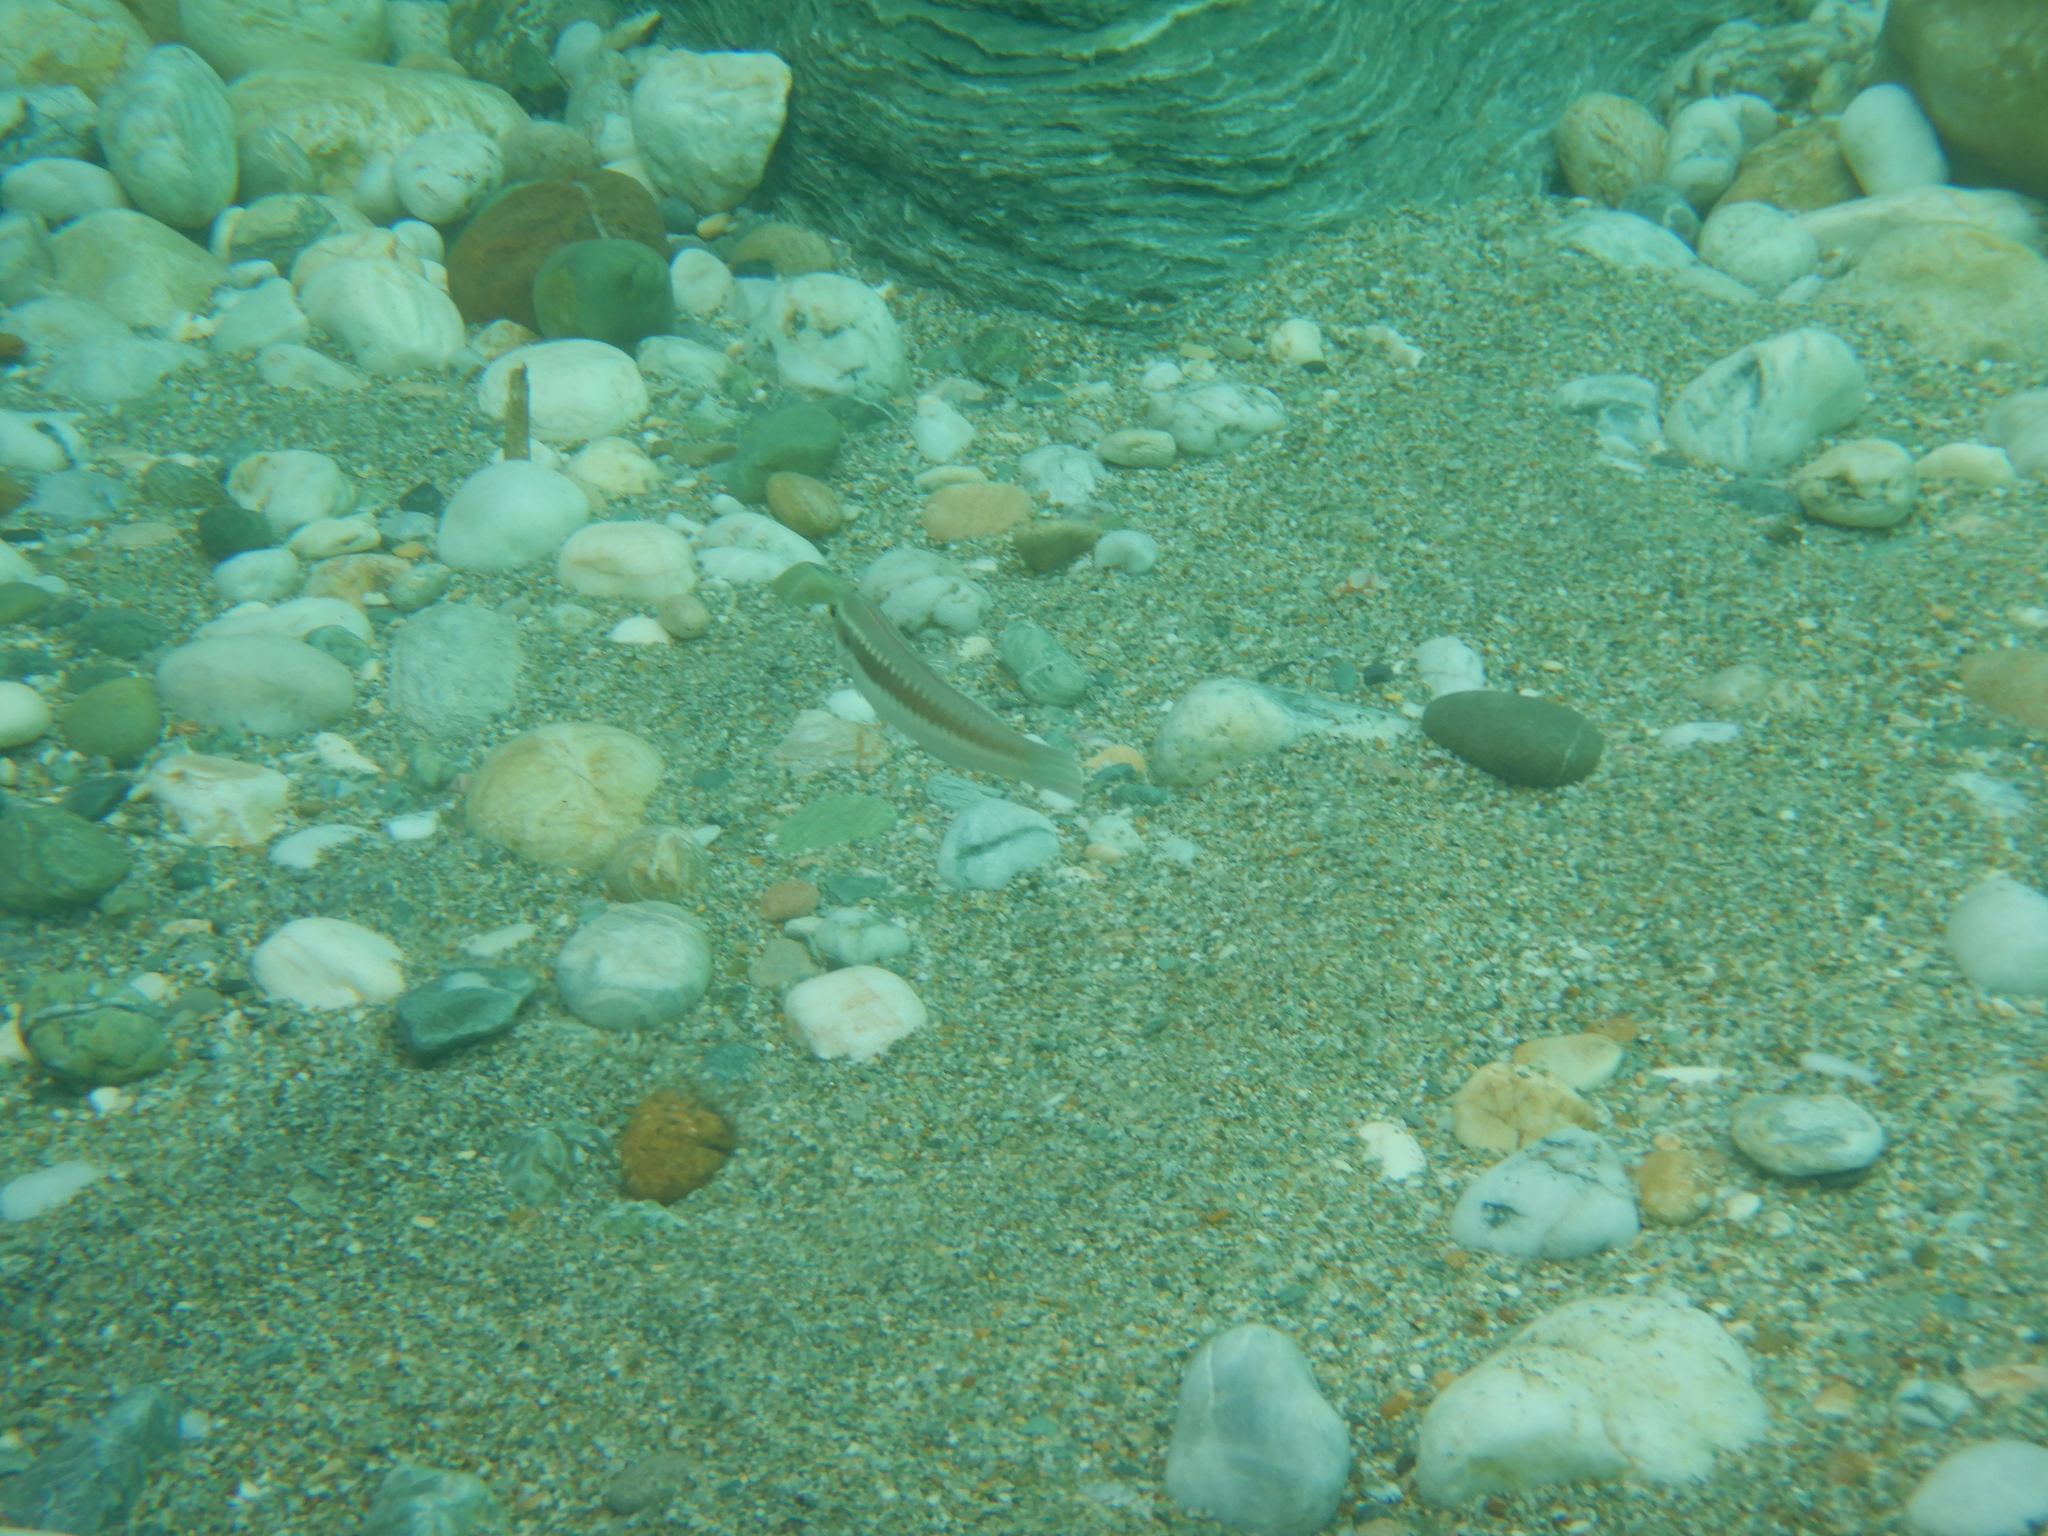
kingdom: Animalia
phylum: Chordata
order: Perciformes
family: Labridae
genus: Coris
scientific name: Coris julis
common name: Rainbow wrasse
